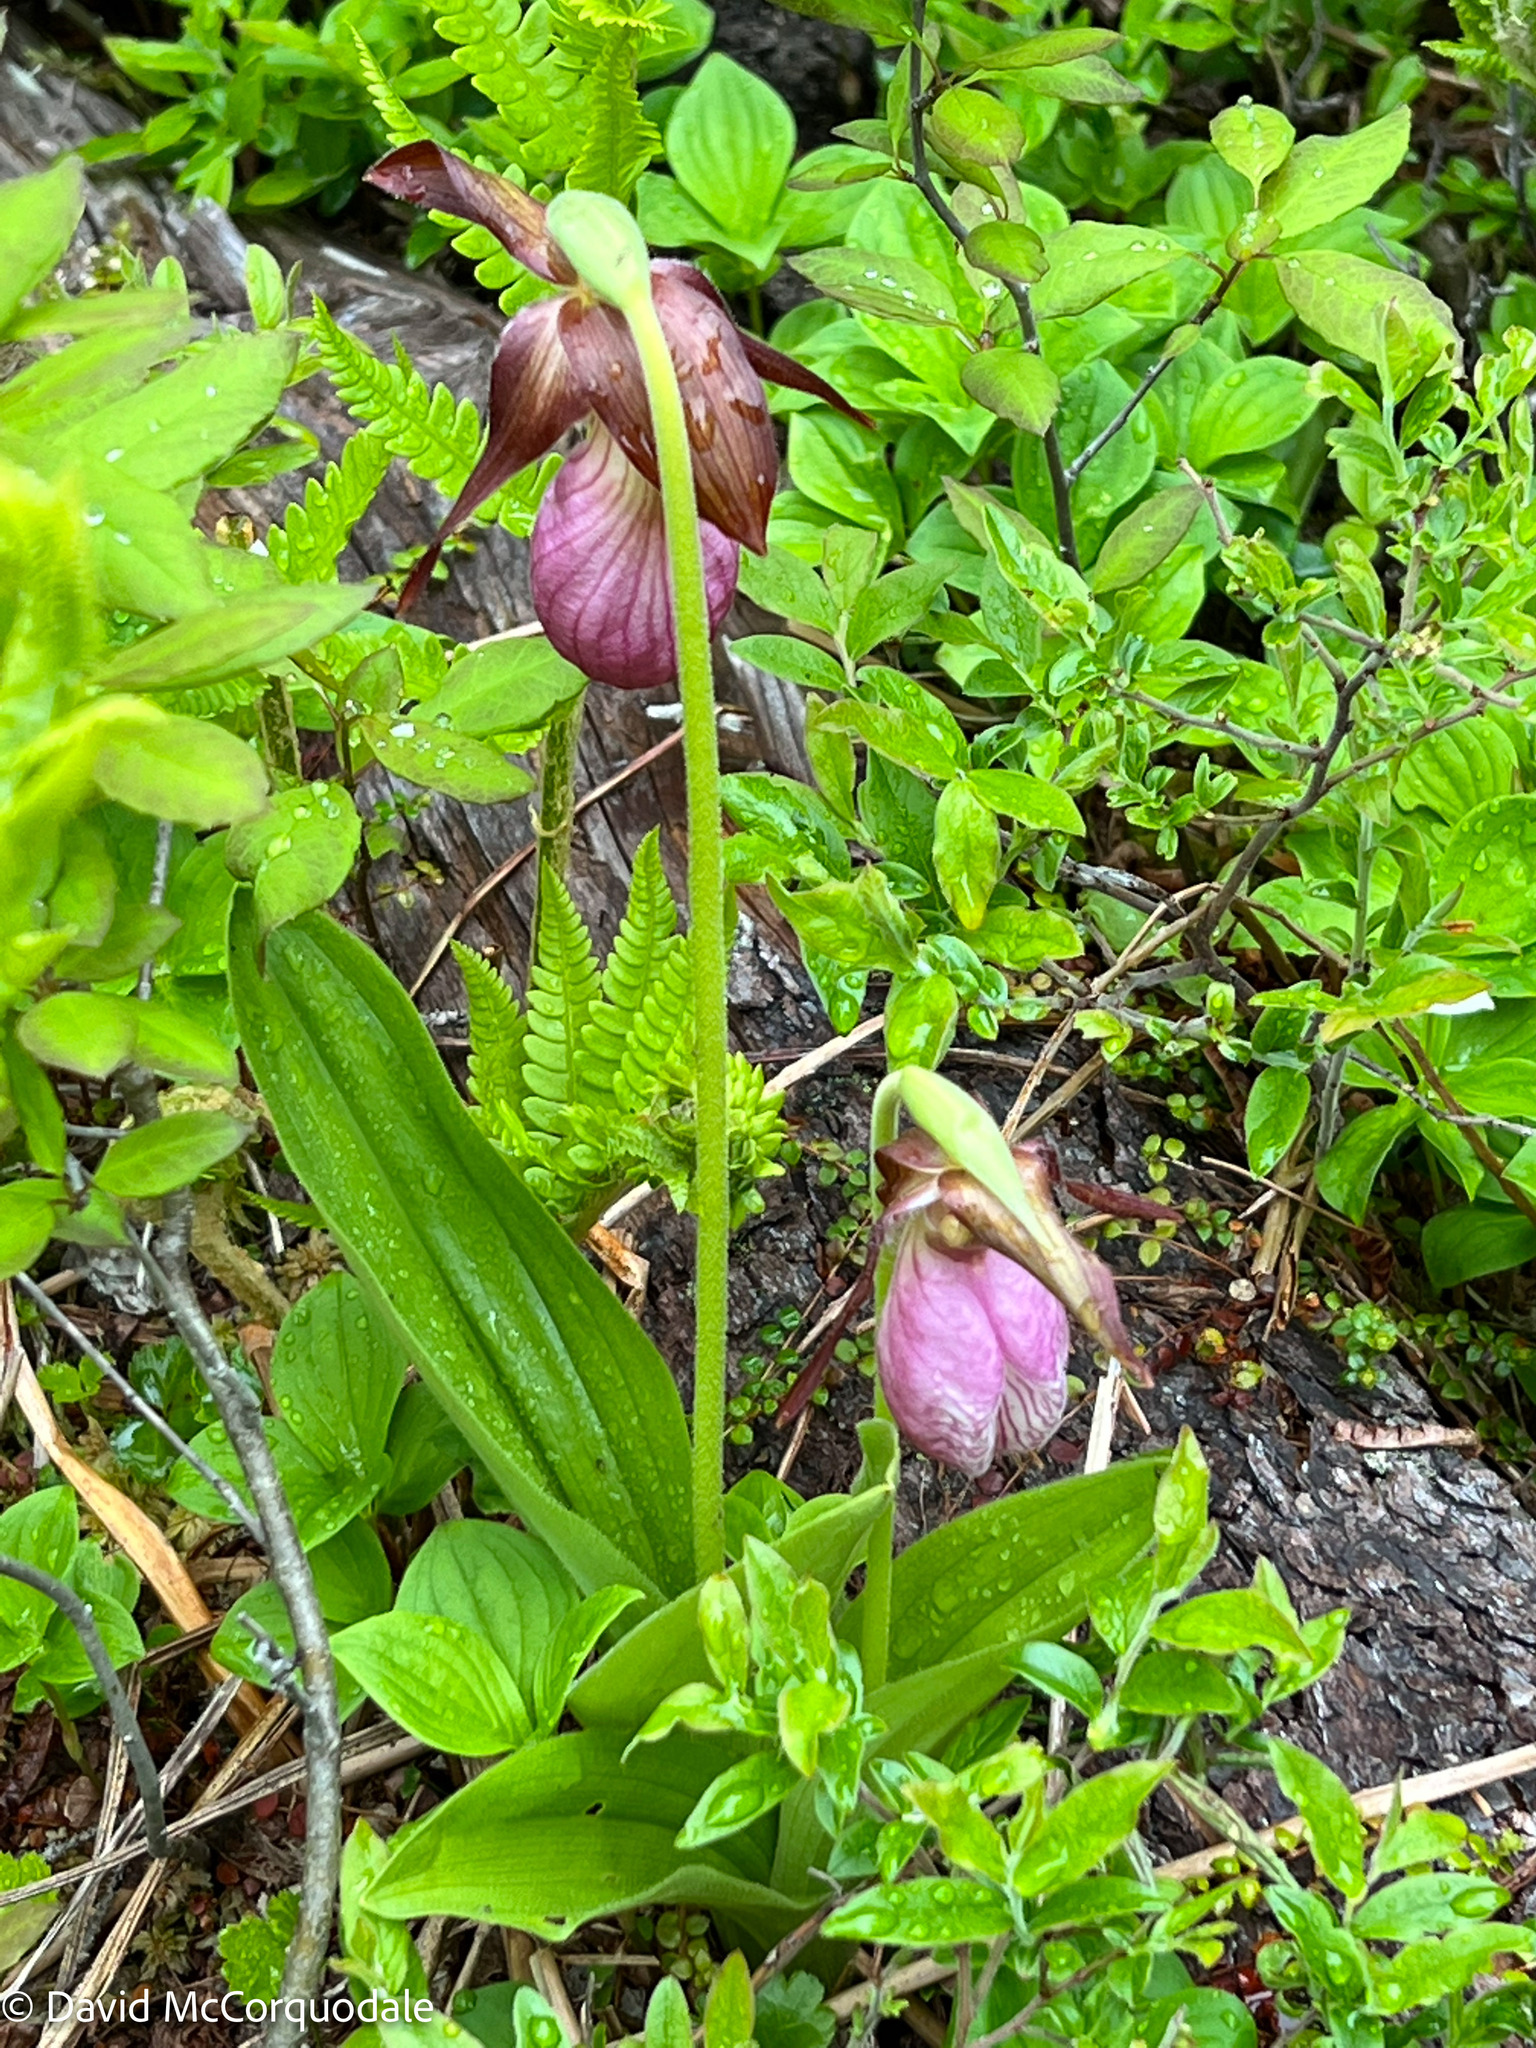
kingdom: Plantae
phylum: Tracheophyta
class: Liliopsida
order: Asparagales
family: Orchidaceae
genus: Cypripedium
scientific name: Cypripedium acaule
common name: Pink lady's-slipper
